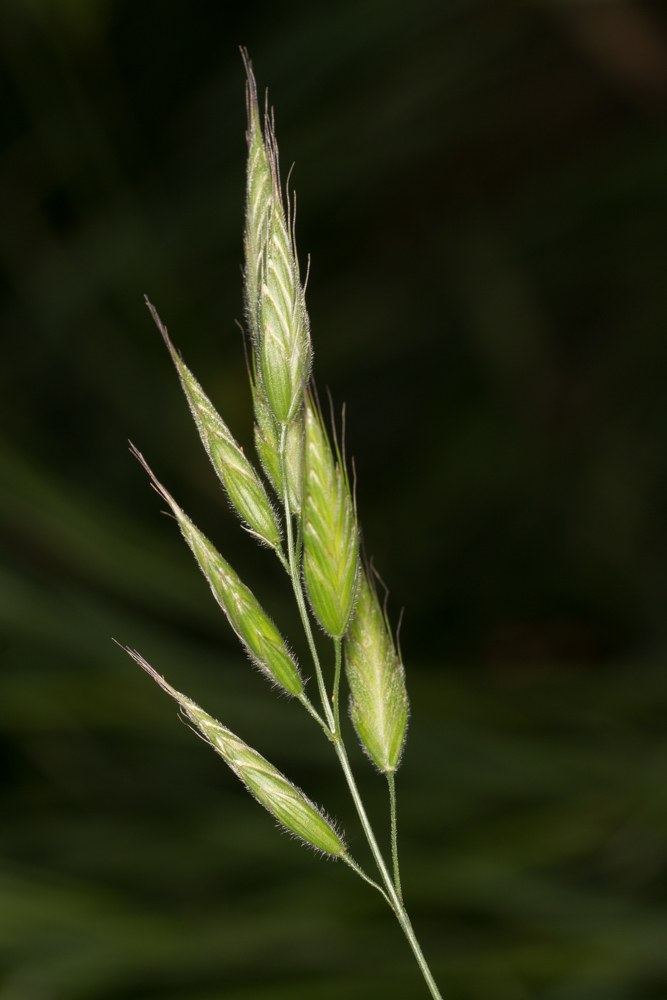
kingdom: Plantae
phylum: Tracheophyta
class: Liliopsida
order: Poales
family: Poaceae
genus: Bromus
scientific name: Bromus hordeaceus
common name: Soft brome
